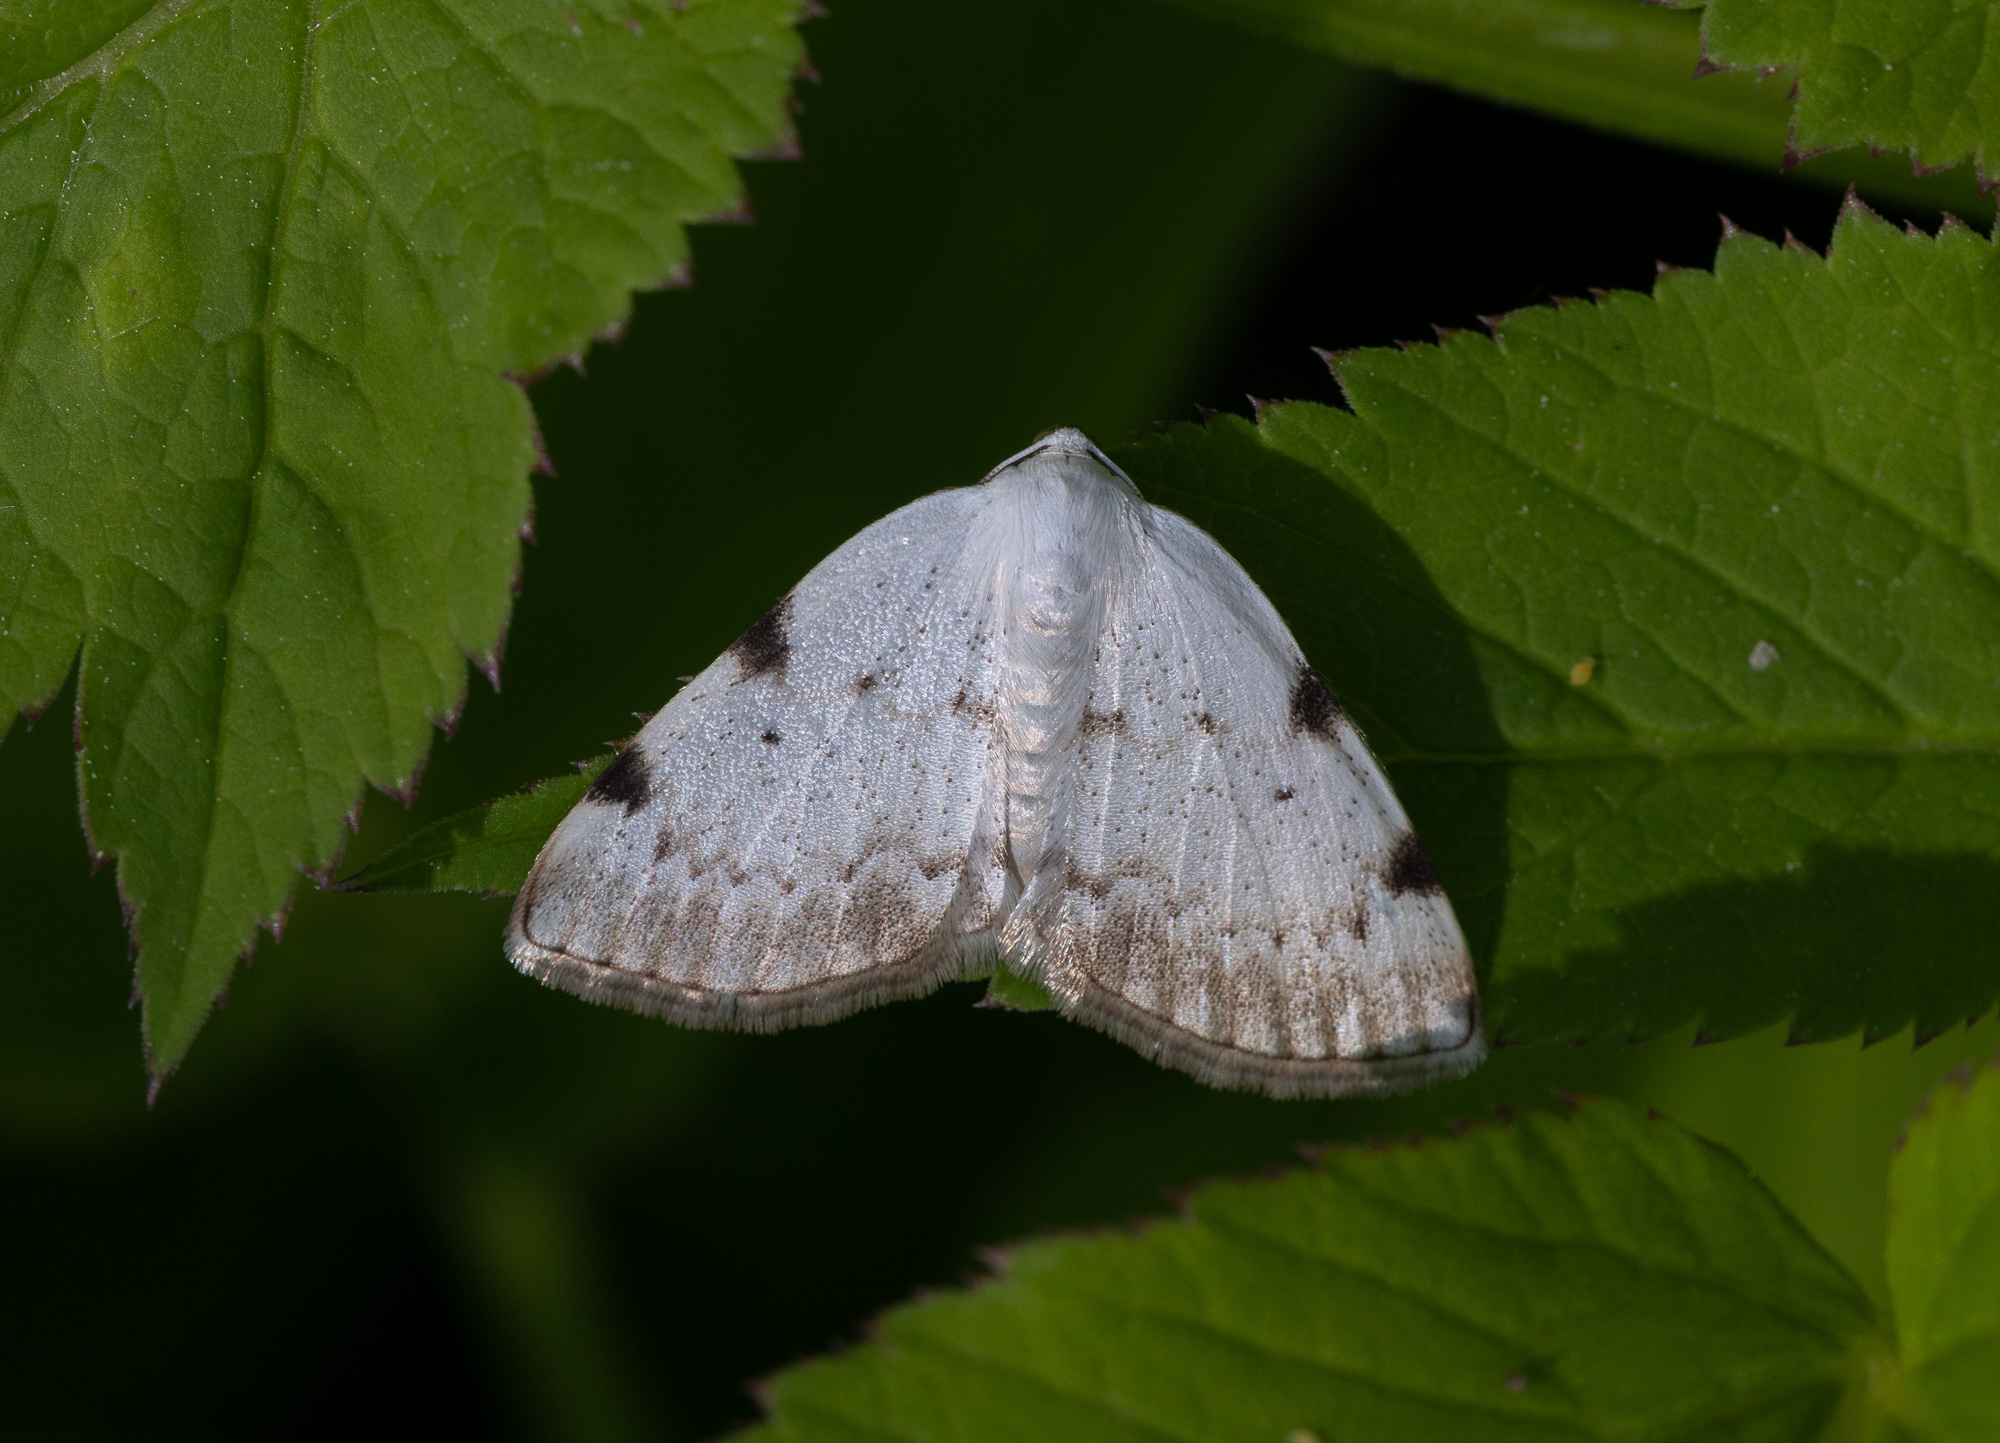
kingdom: Animalia
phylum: Arthropoda
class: Insecta
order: Lepidoptera
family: Geometridae
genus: Lomographa
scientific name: Lomographa bimaculata
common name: White-pinion spotted
